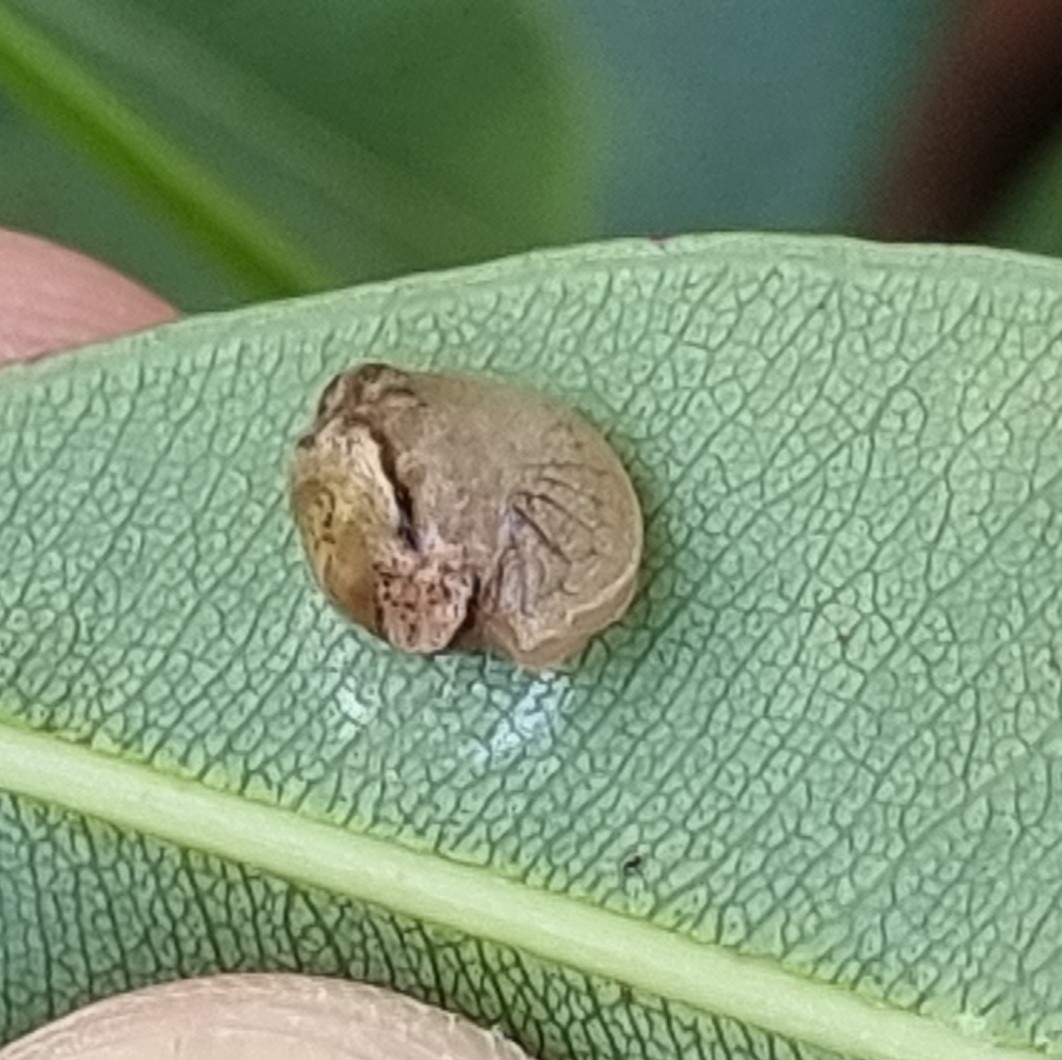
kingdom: Animalia
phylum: Mollusca
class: Gastropoda
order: Stylommatophora
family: Helicarionidae
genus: Ubiquitarion
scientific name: Ubiquitarion iridis
